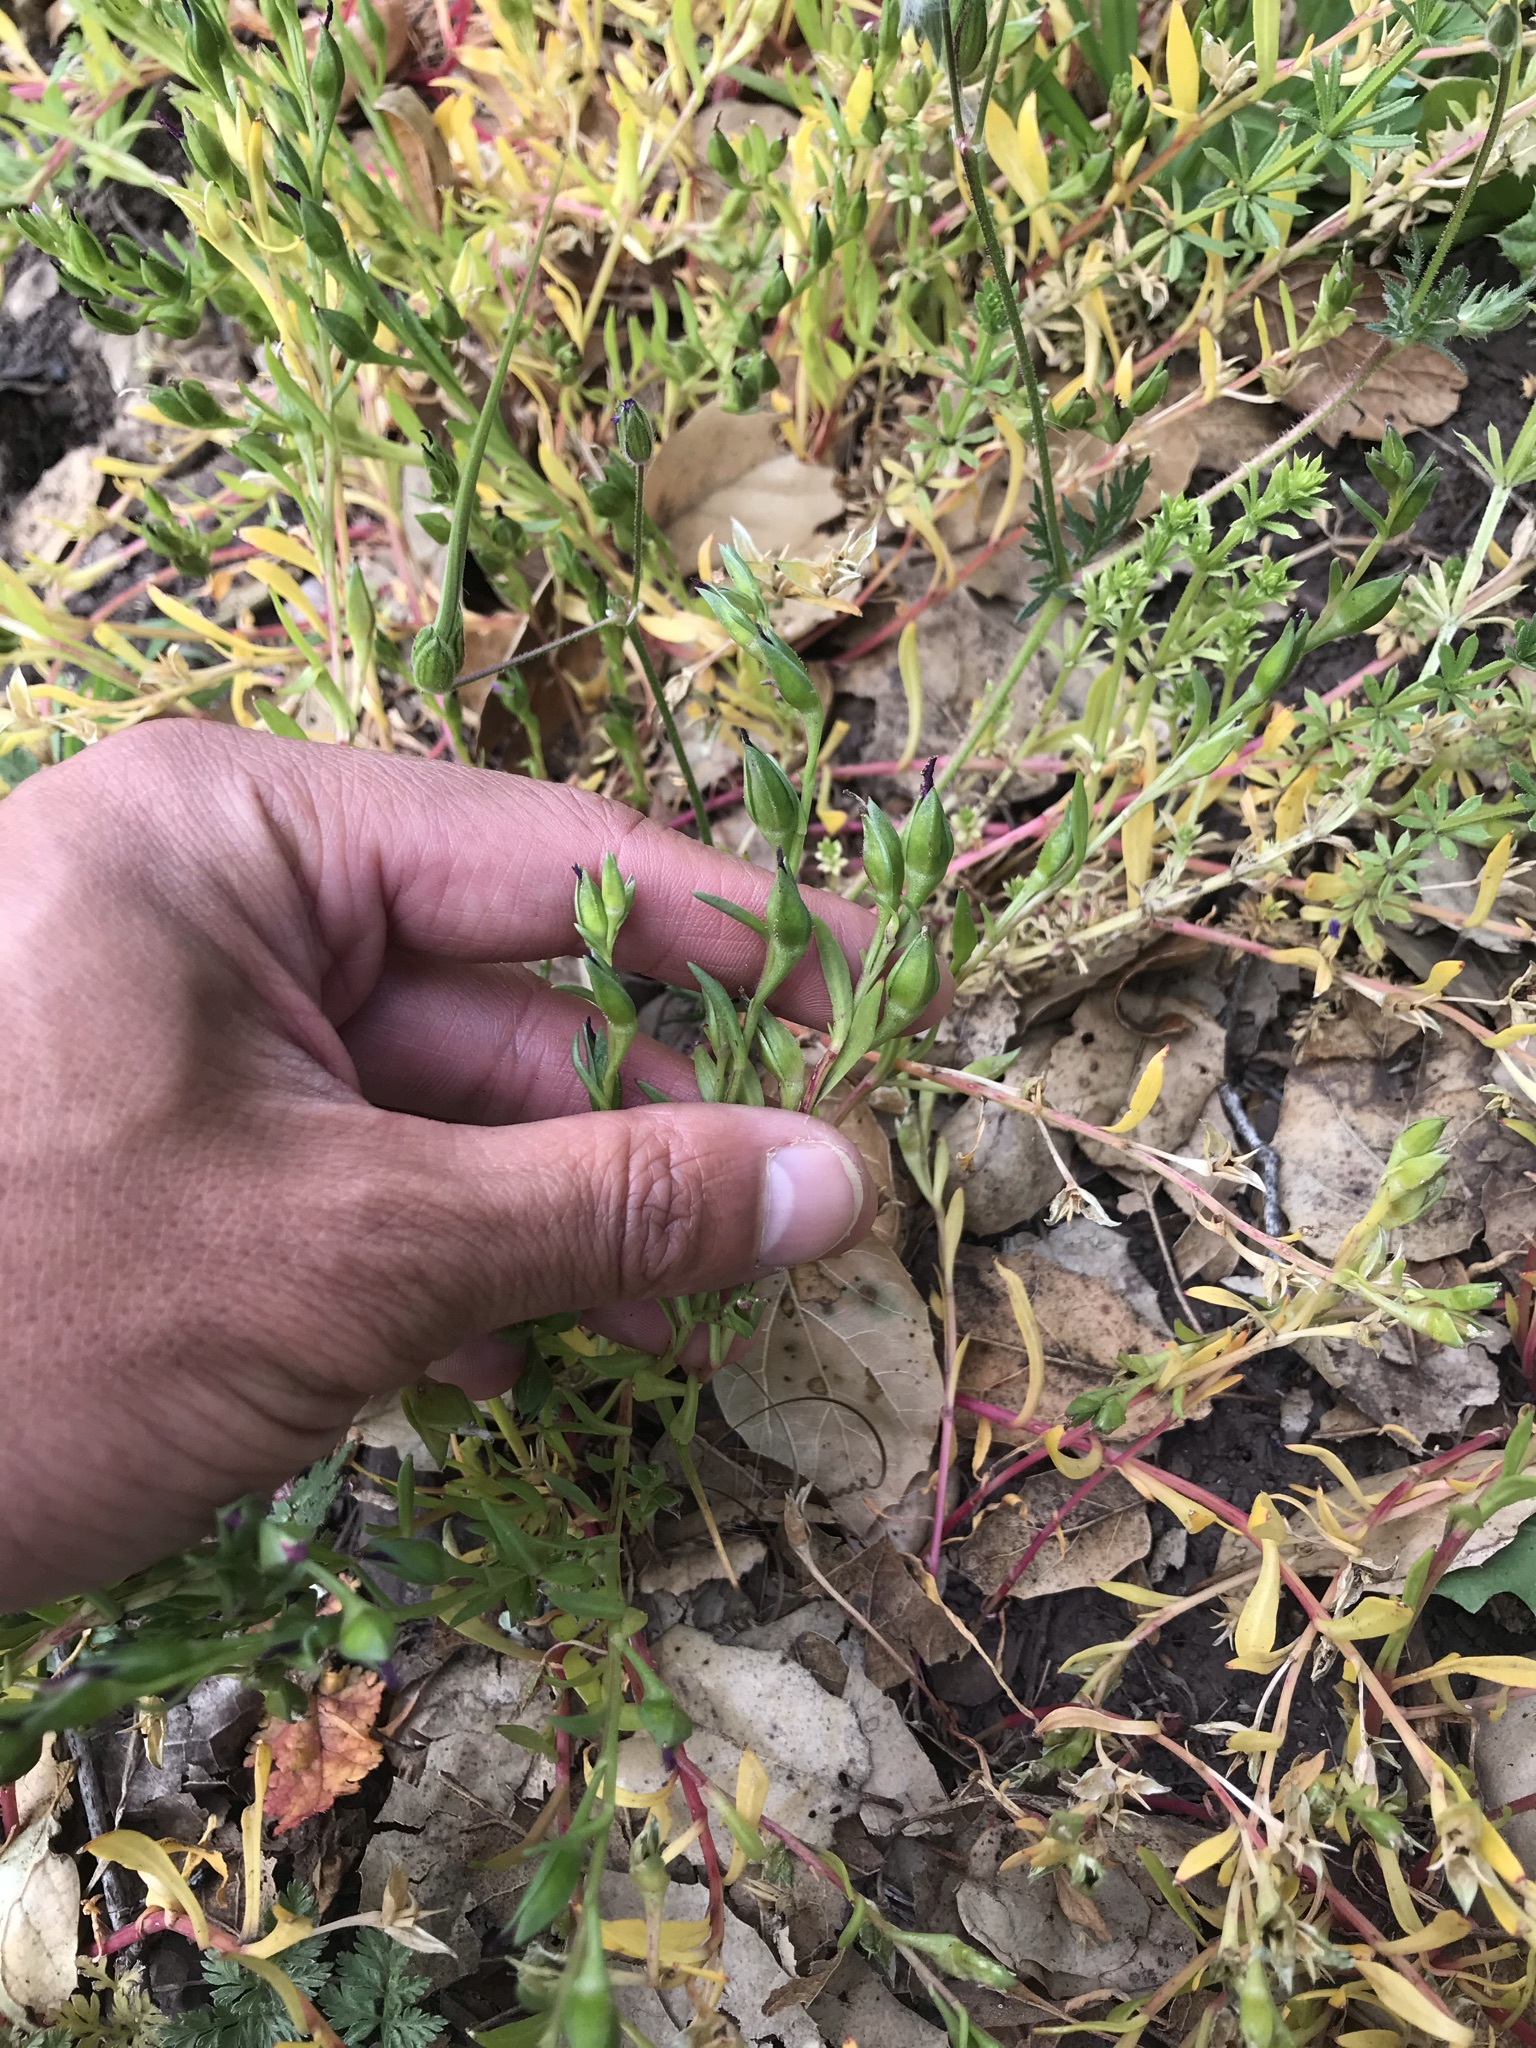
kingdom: Plantae
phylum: Tracheophyta
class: Magnoliopsida
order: Caryophyllales
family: Montiaceae
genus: Calandrinia
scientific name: Calandrinia menziesii
